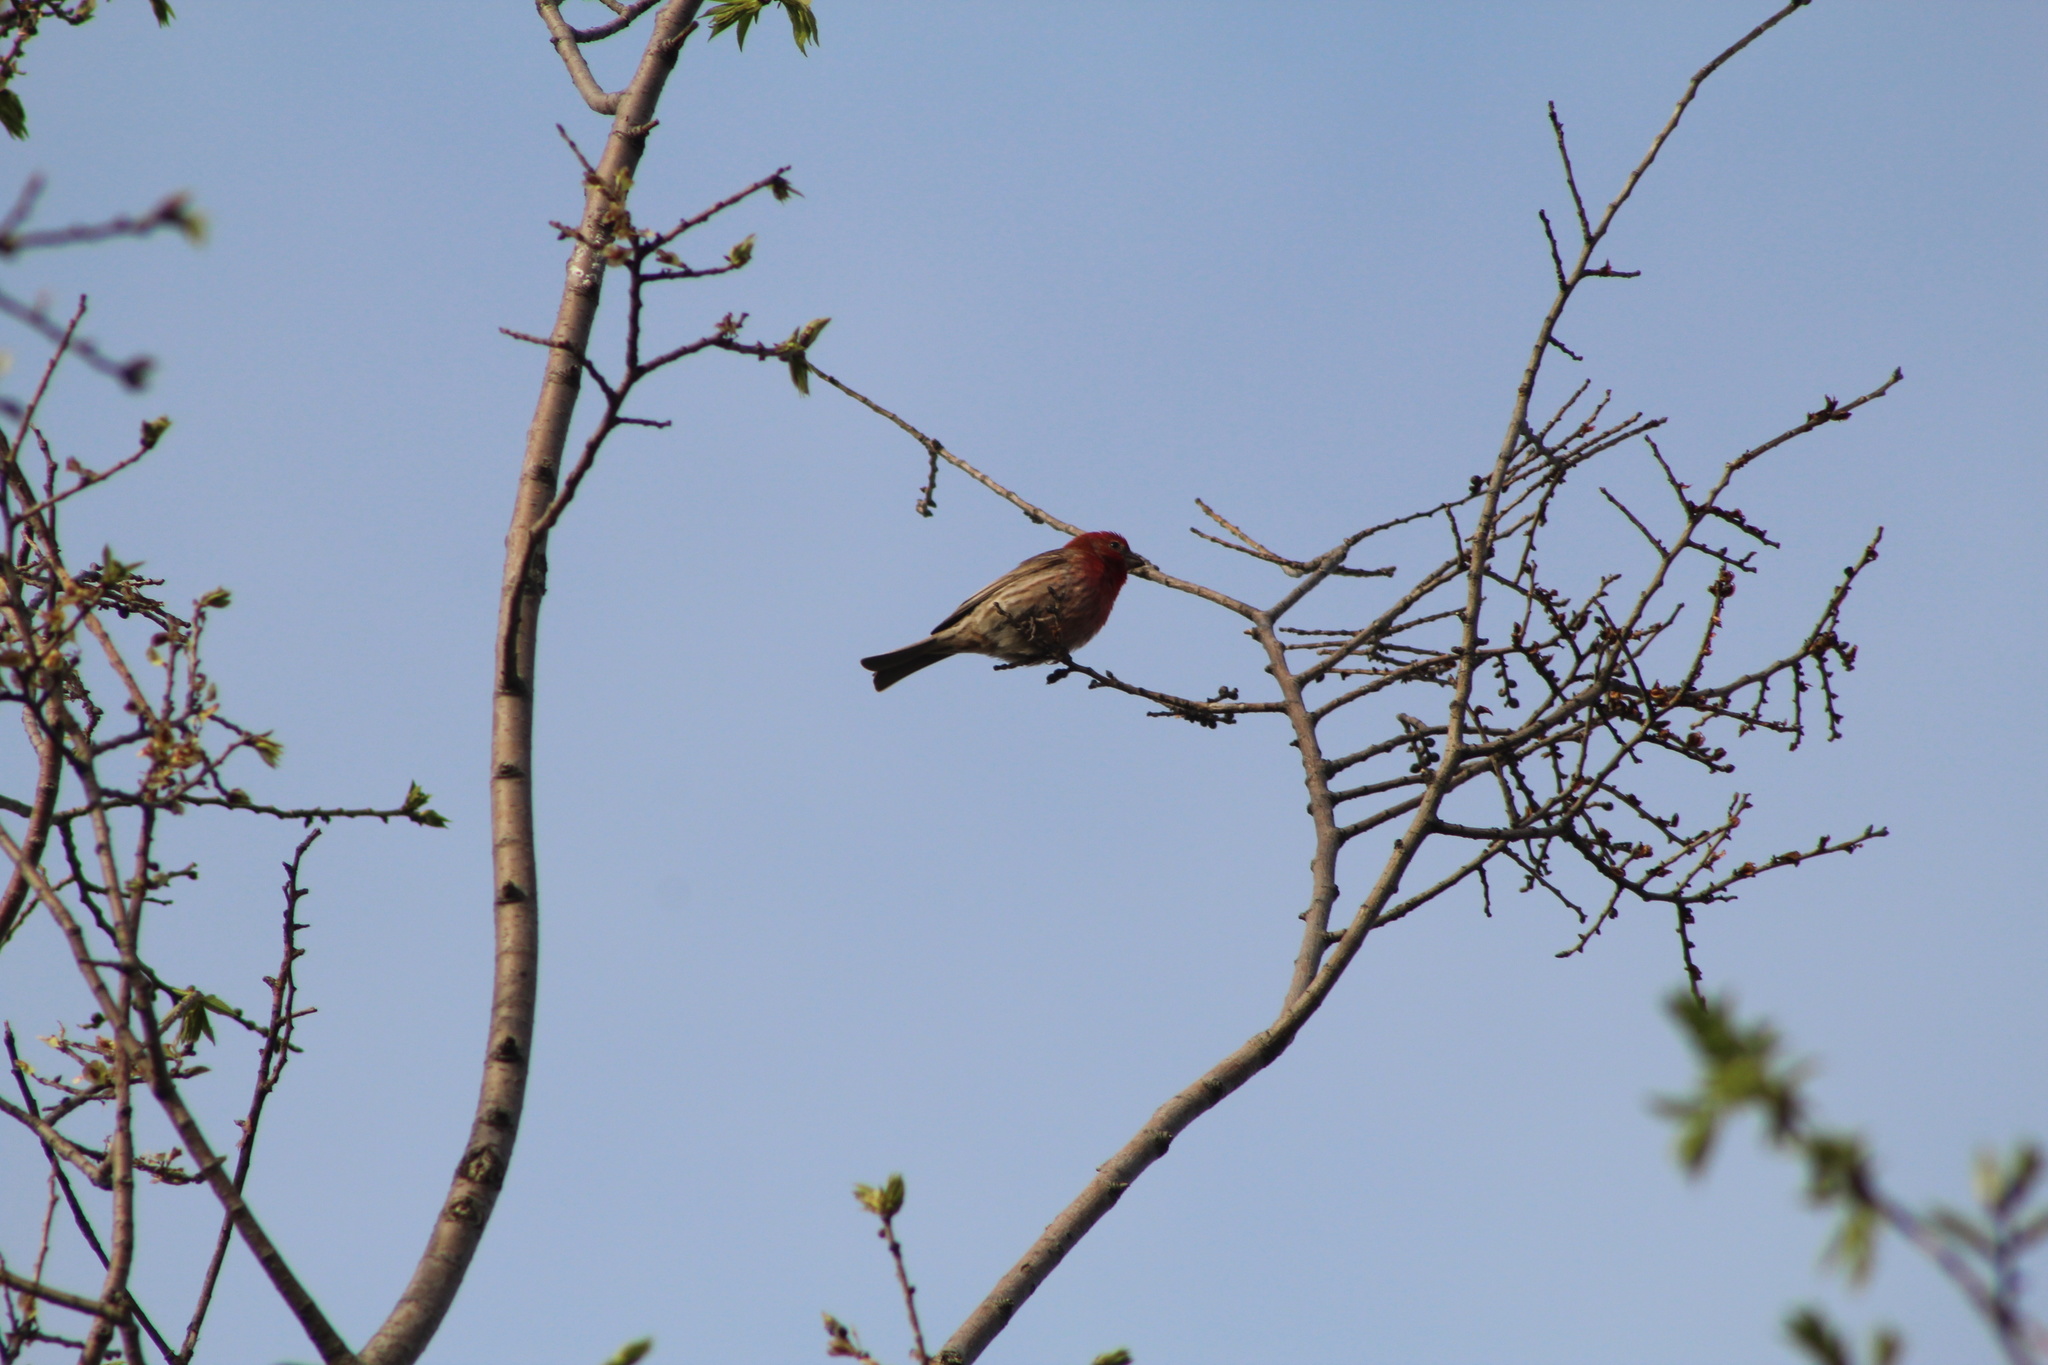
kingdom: Animalia
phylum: Chordata
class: Aves
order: Passeriformes
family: Fringillidae
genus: Haemorhous
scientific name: Haemorhous mexicanus
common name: House finch
